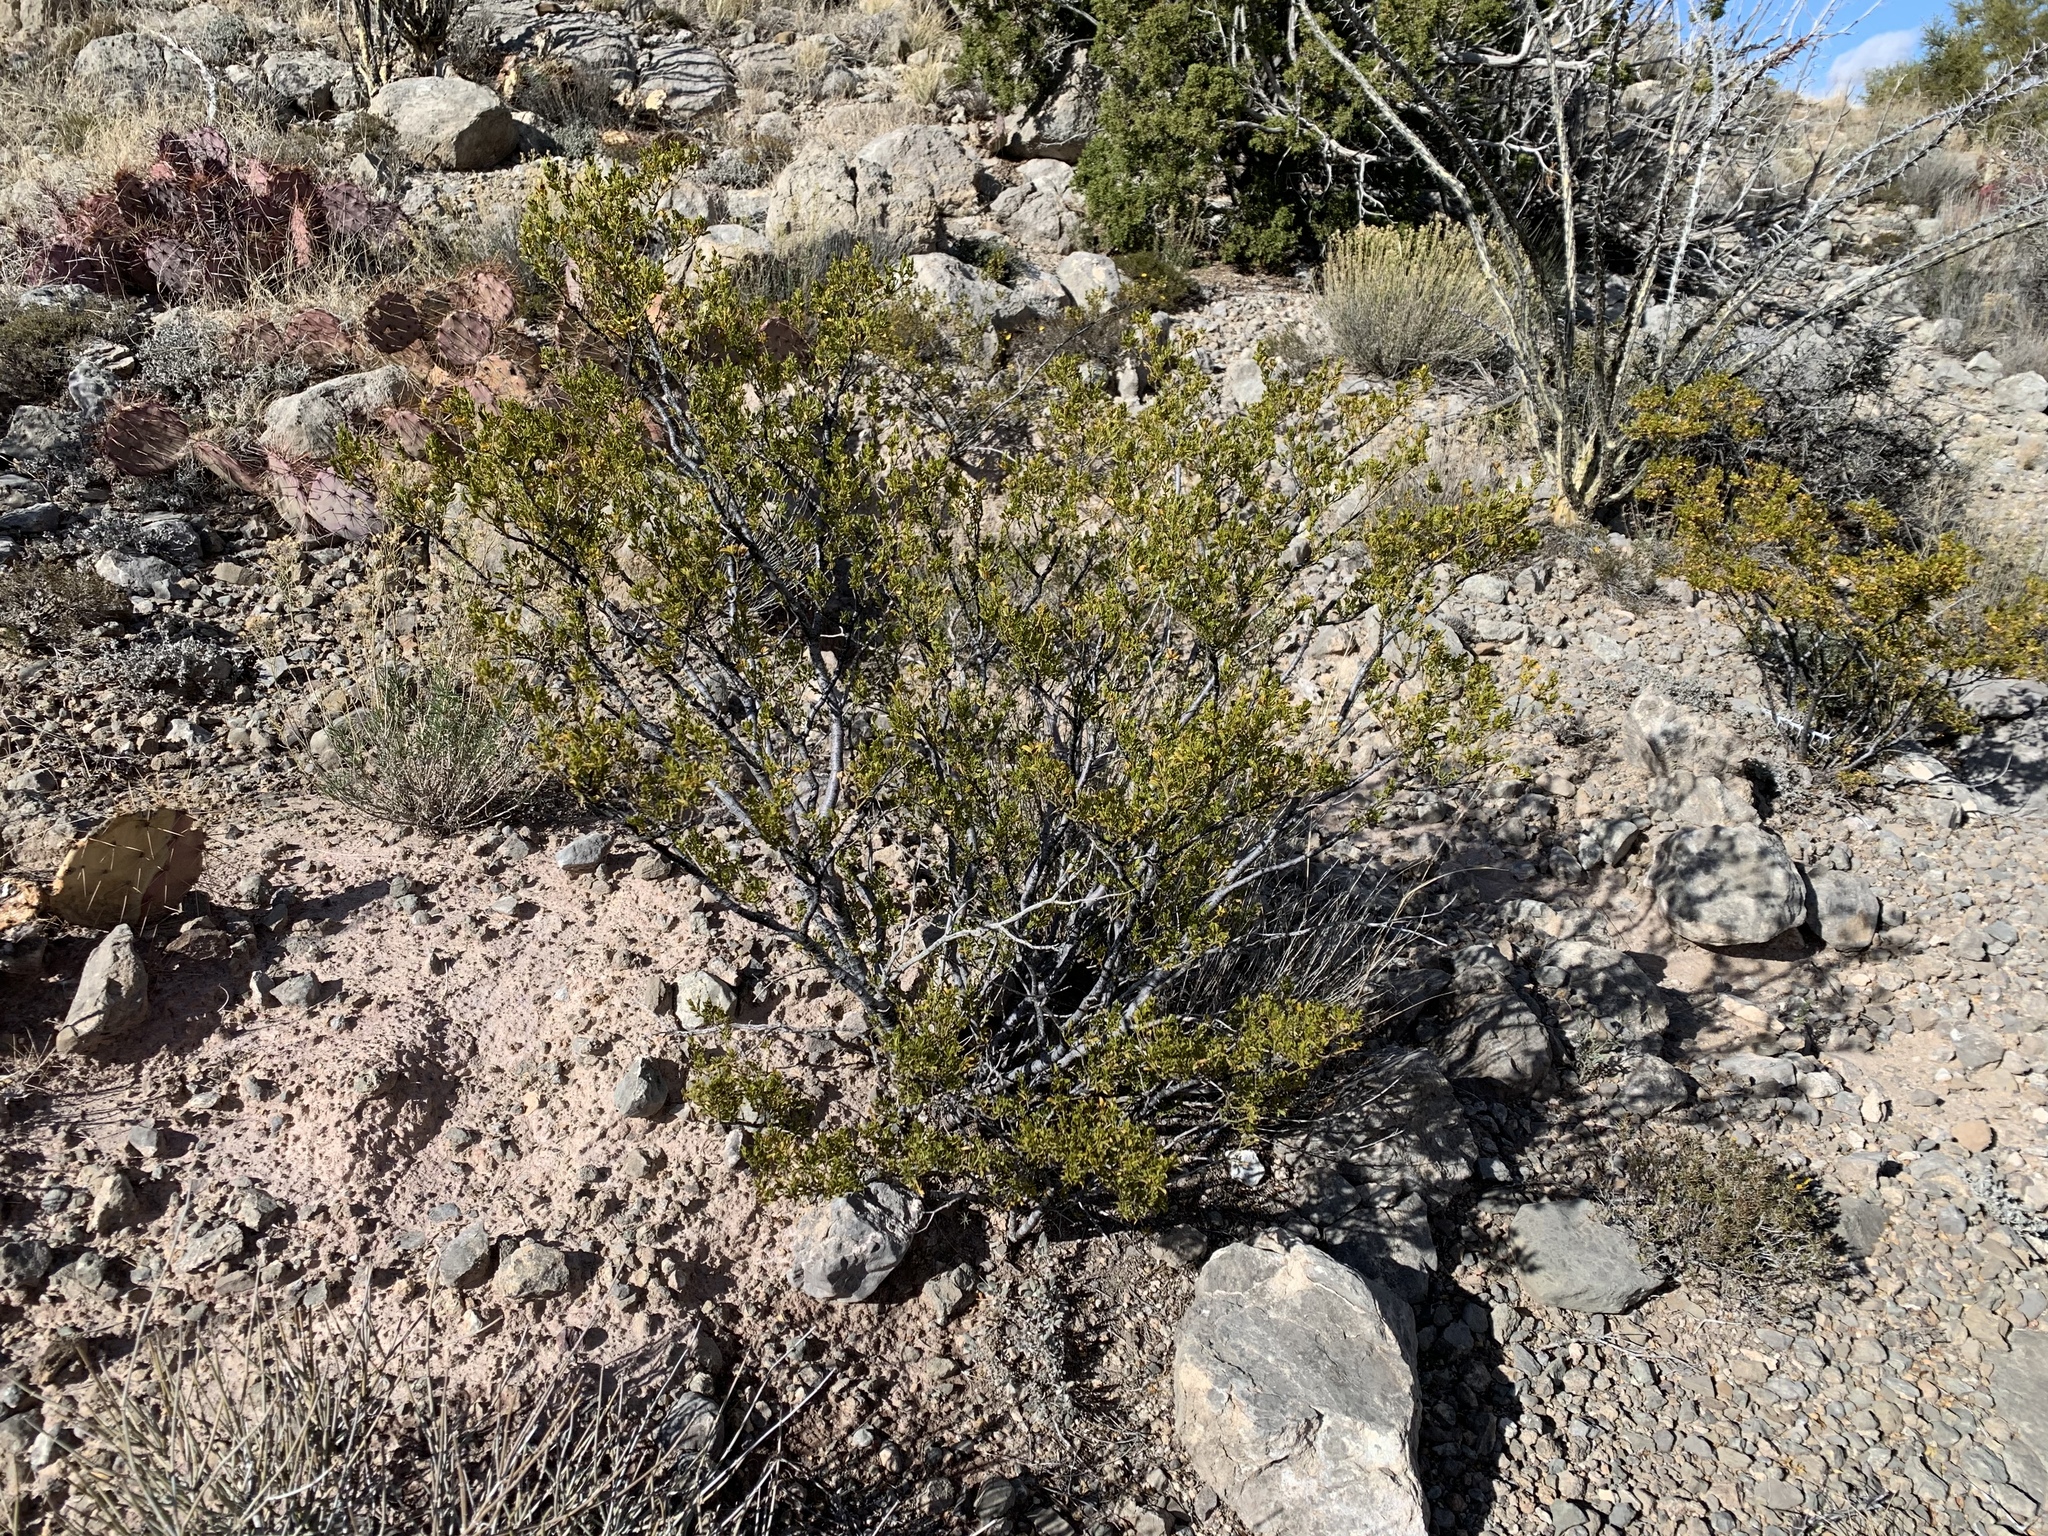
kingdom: Plantae
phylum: Tracheophyta
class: Magnoliopsida
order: Zygophyllales
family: Zygophyllaceae
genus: Larrea
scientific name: Larrea tridentata
